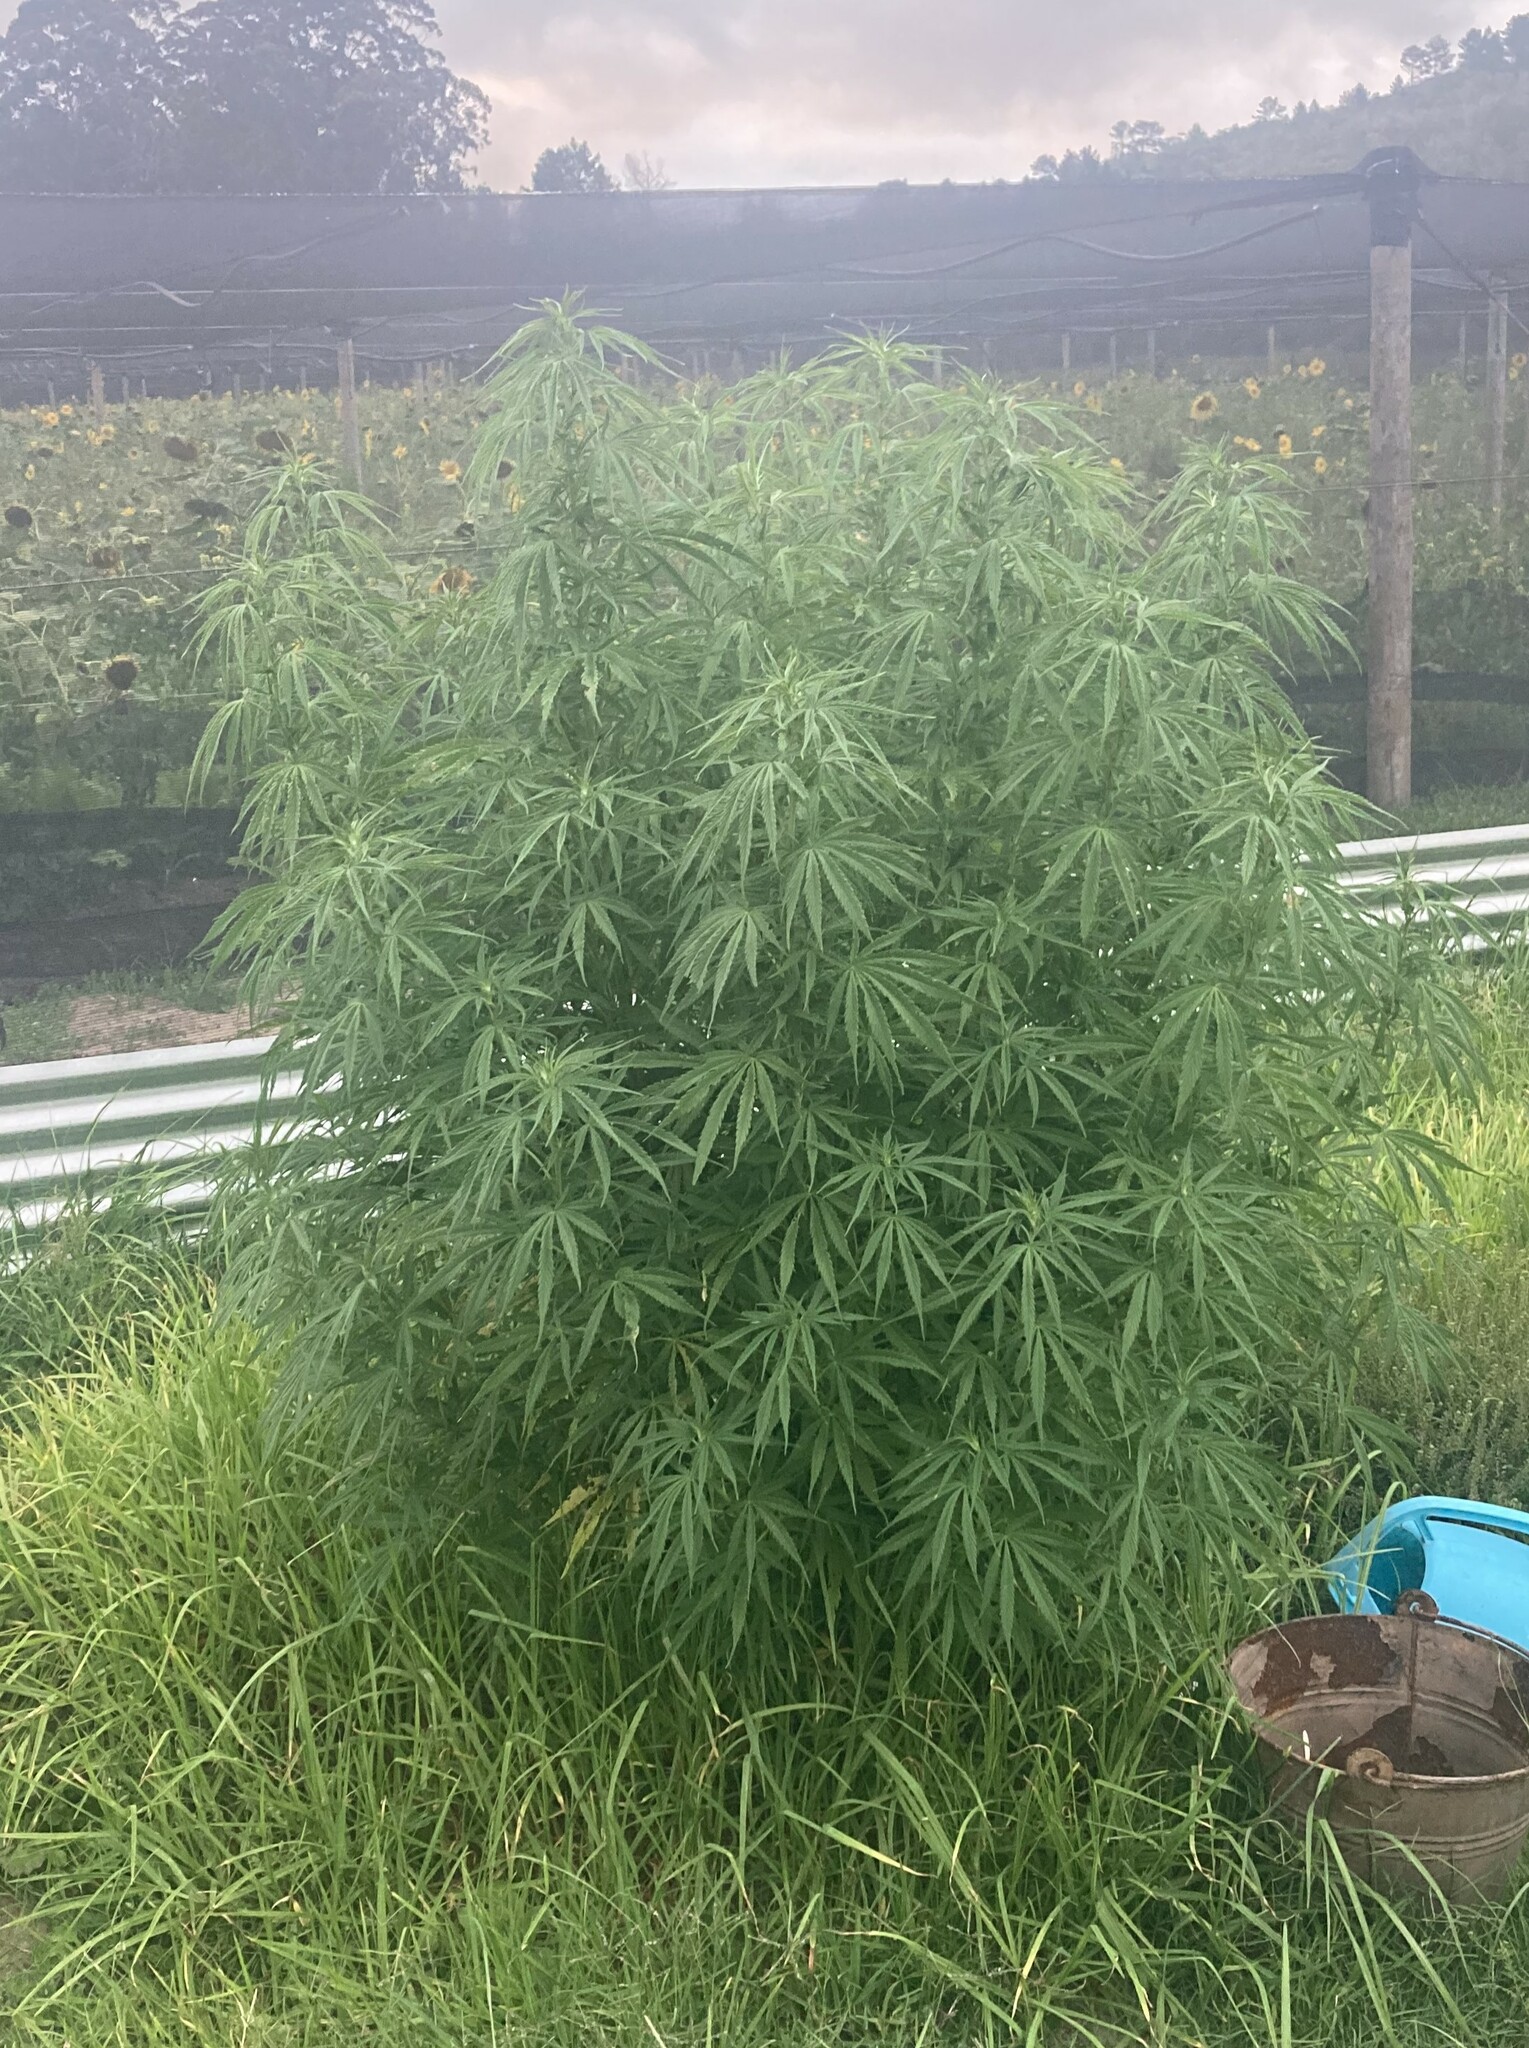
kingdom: Plantae
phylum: Tracheophyta
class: Magnoliopsida
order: Rosales
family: Cannabaceae
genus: Cannabis
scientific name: Cannabis sativa
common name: Hemp
